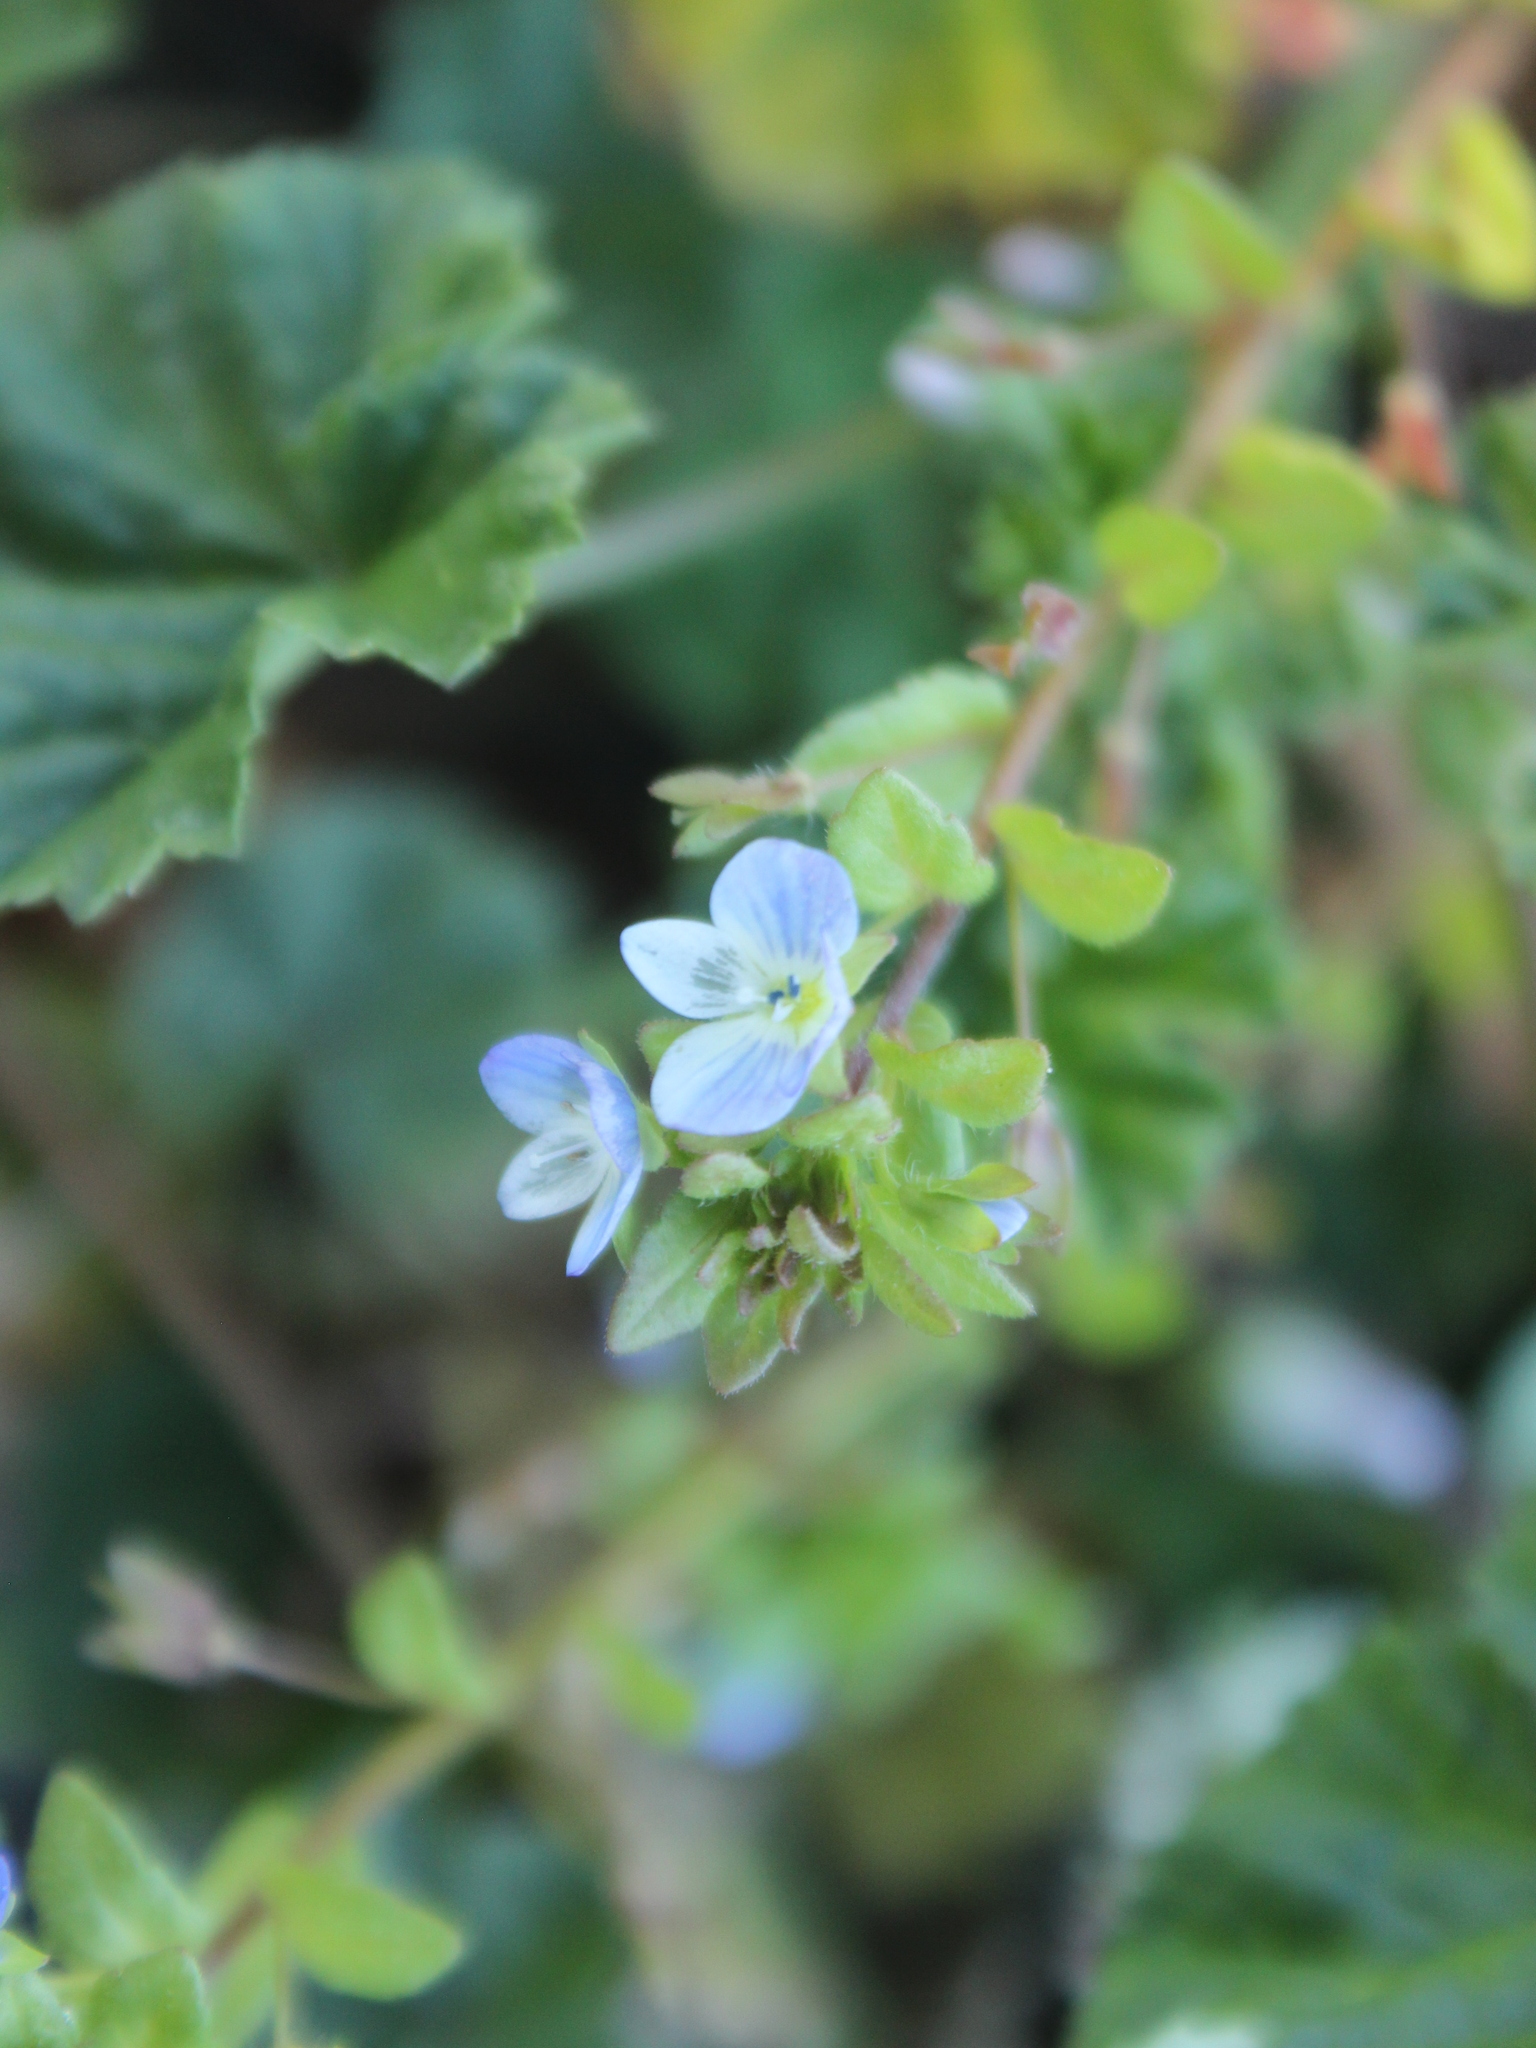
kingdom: Plantae
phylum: Tracheophyta
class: Magnoliopsida
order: Lamiales
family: Plantaginaceae
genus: Veronica
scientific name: Veronica persica
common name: Common field-speedwell
